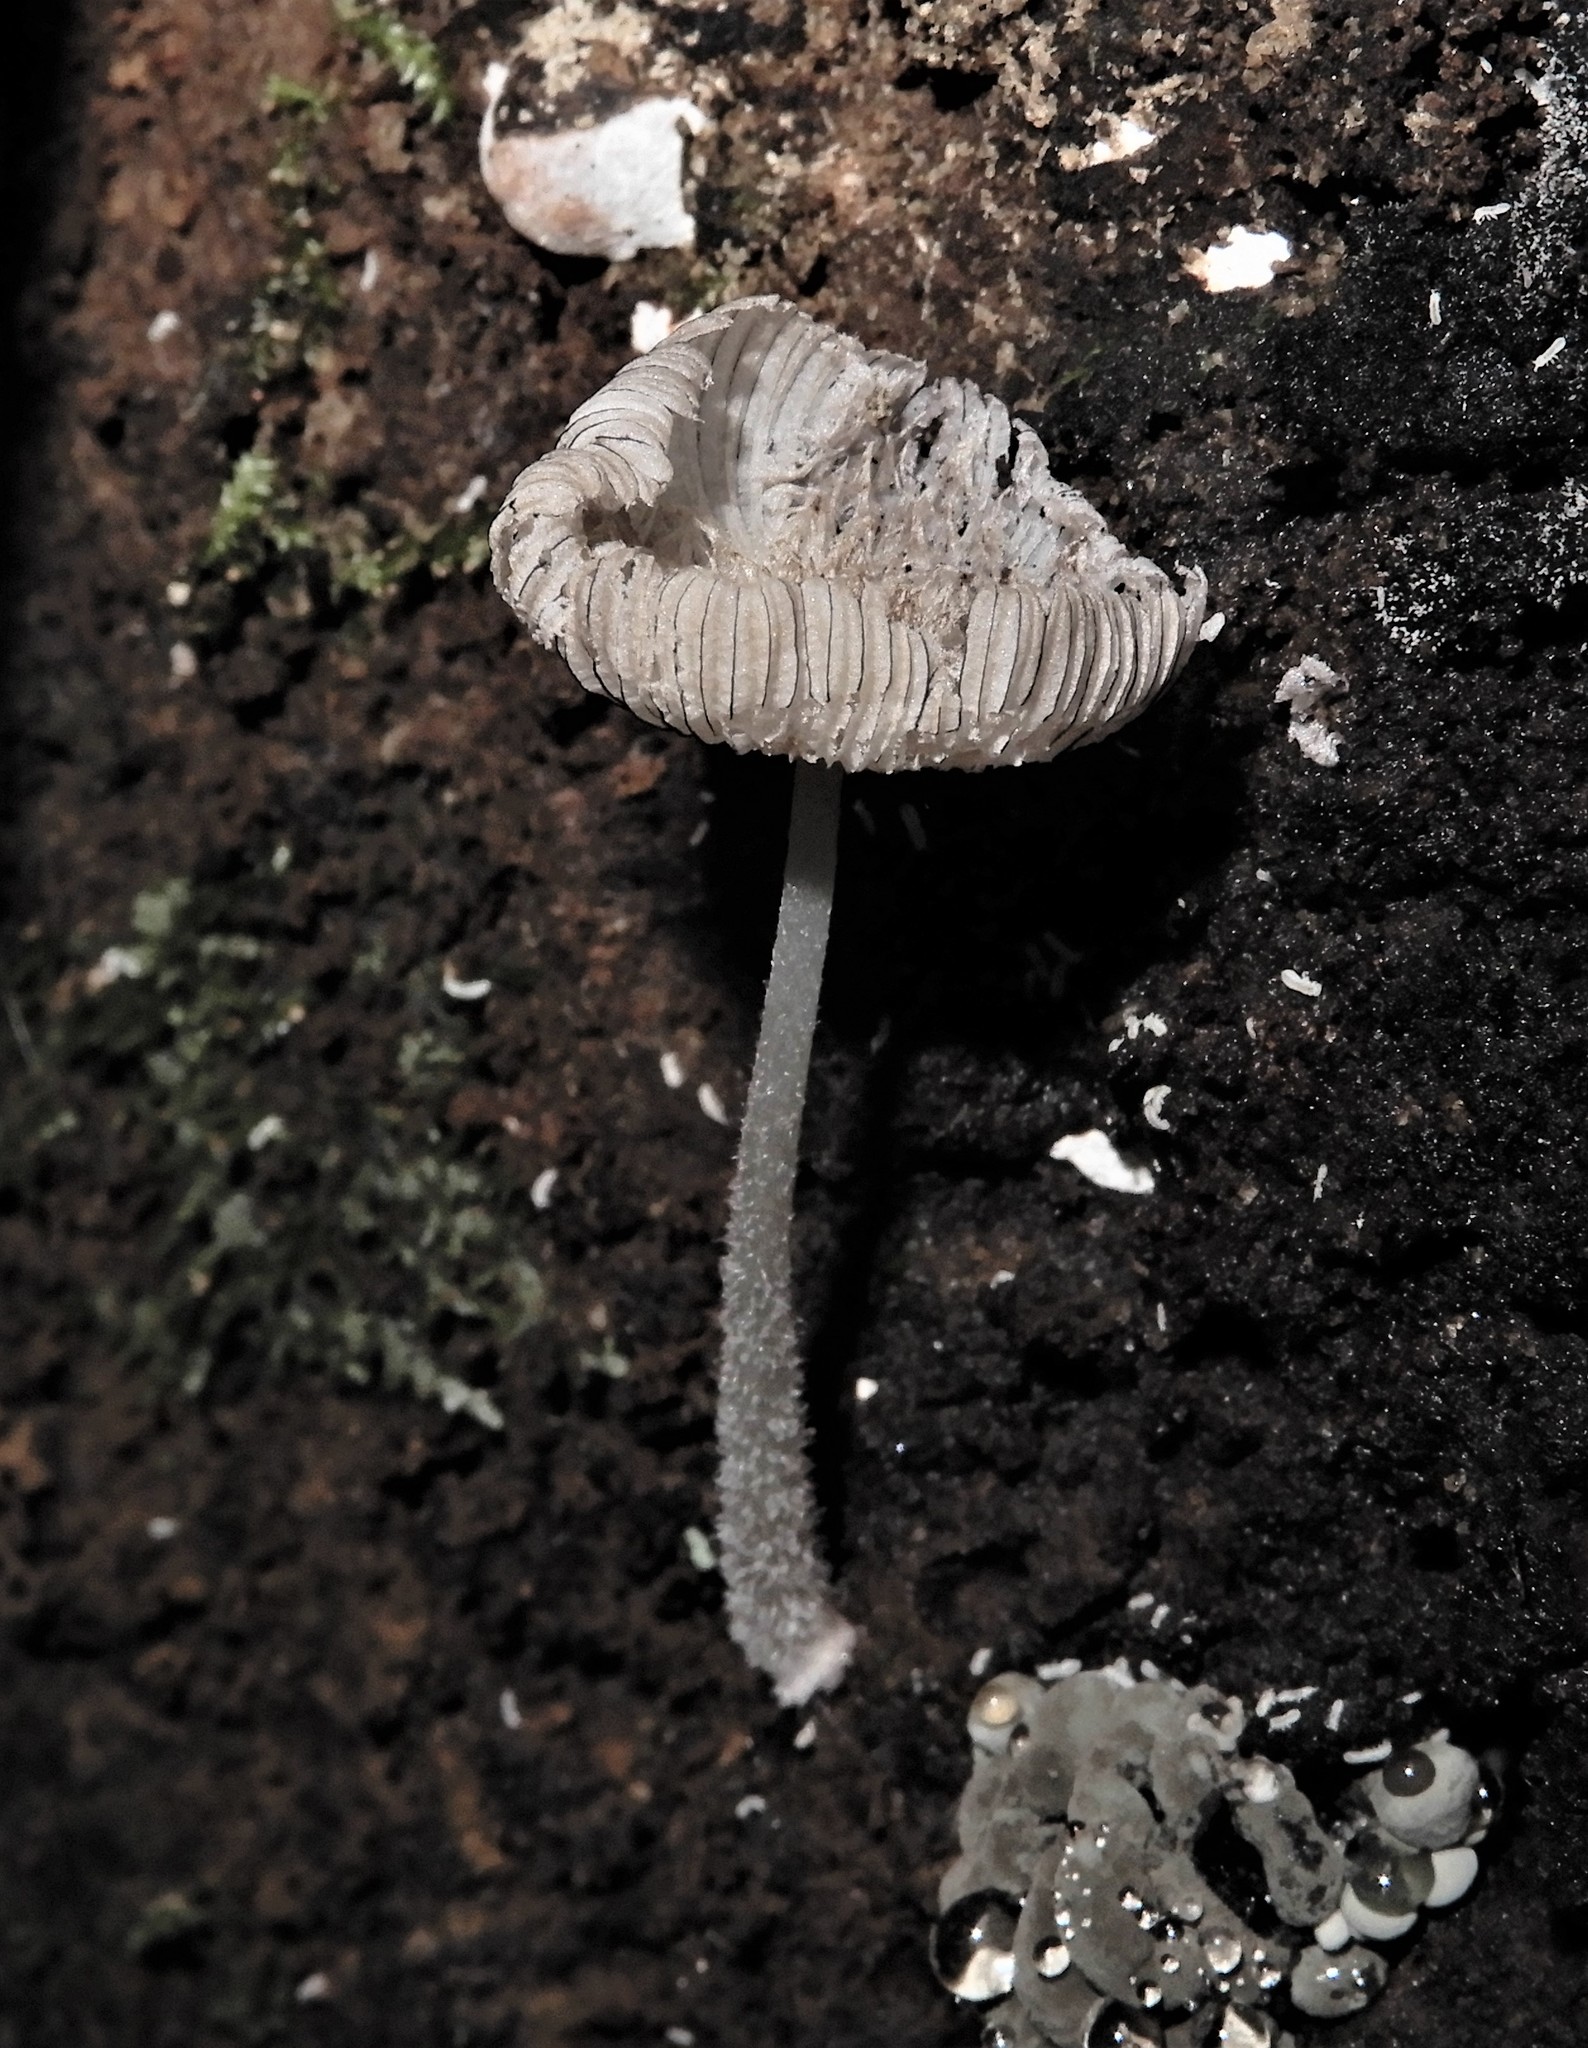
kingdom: Fungi
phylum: Basidiomycota
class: Agaricomycetes
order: Agaricales
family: Psathyrellaceae
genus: Coprinopsis
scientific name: Coprinopsis
